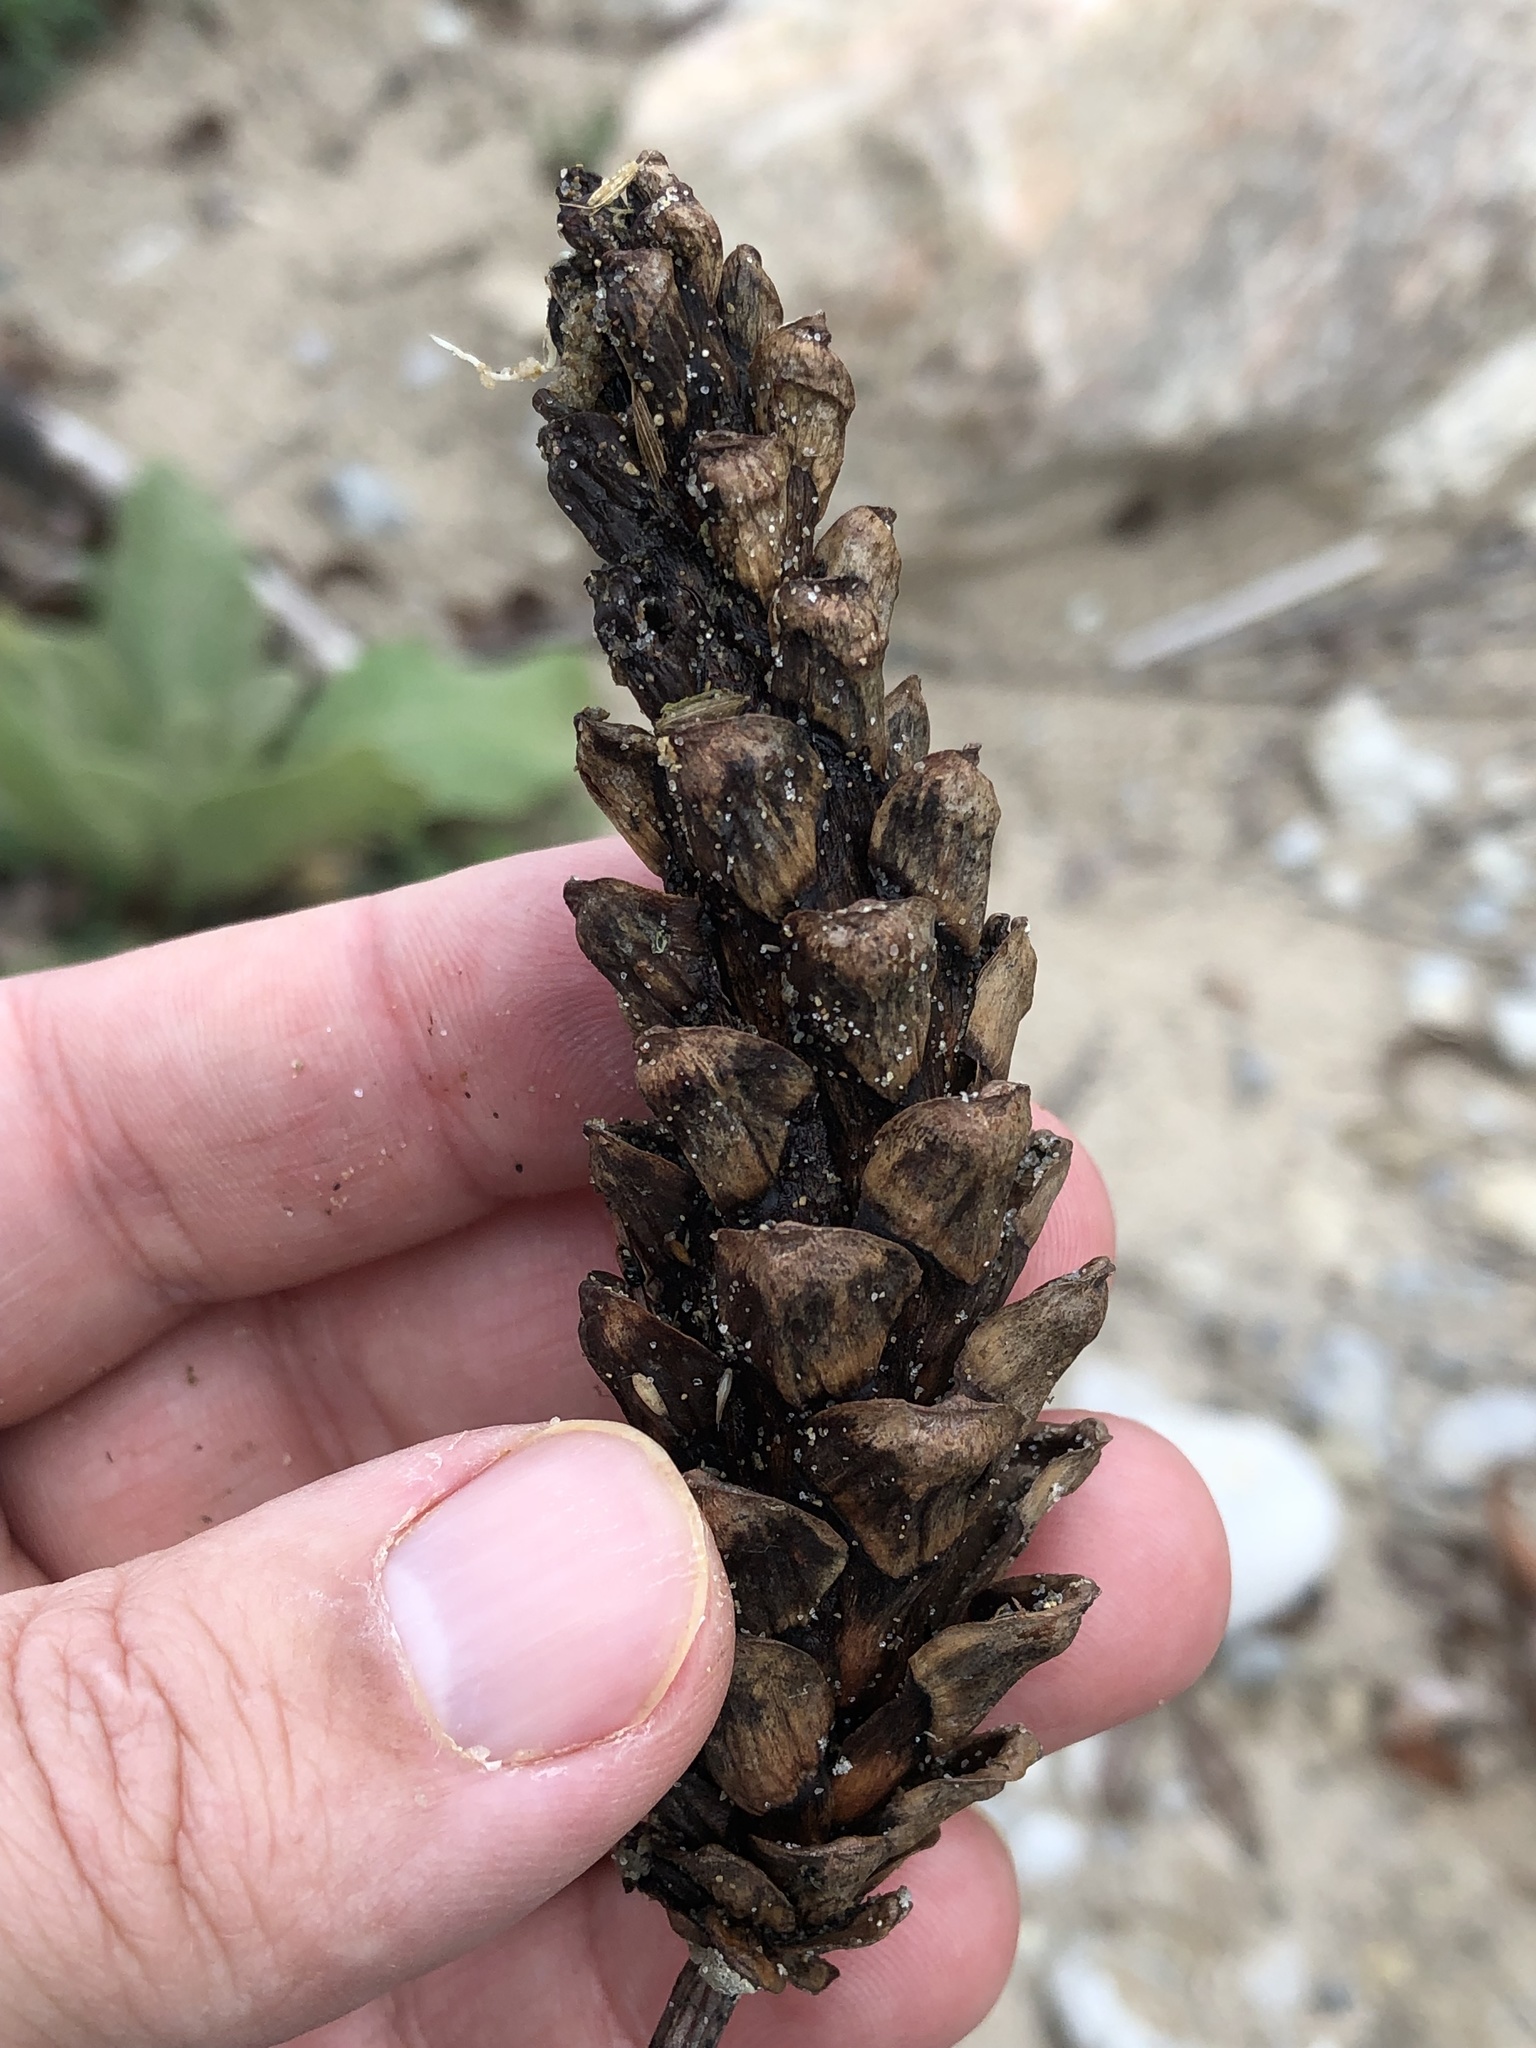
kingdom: Plantae
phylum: Tracheophyta
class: Pinopsida
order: Pinales
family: Pinaceae
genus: Pinus
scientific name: Pinus strobus
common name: Weymouth pine
